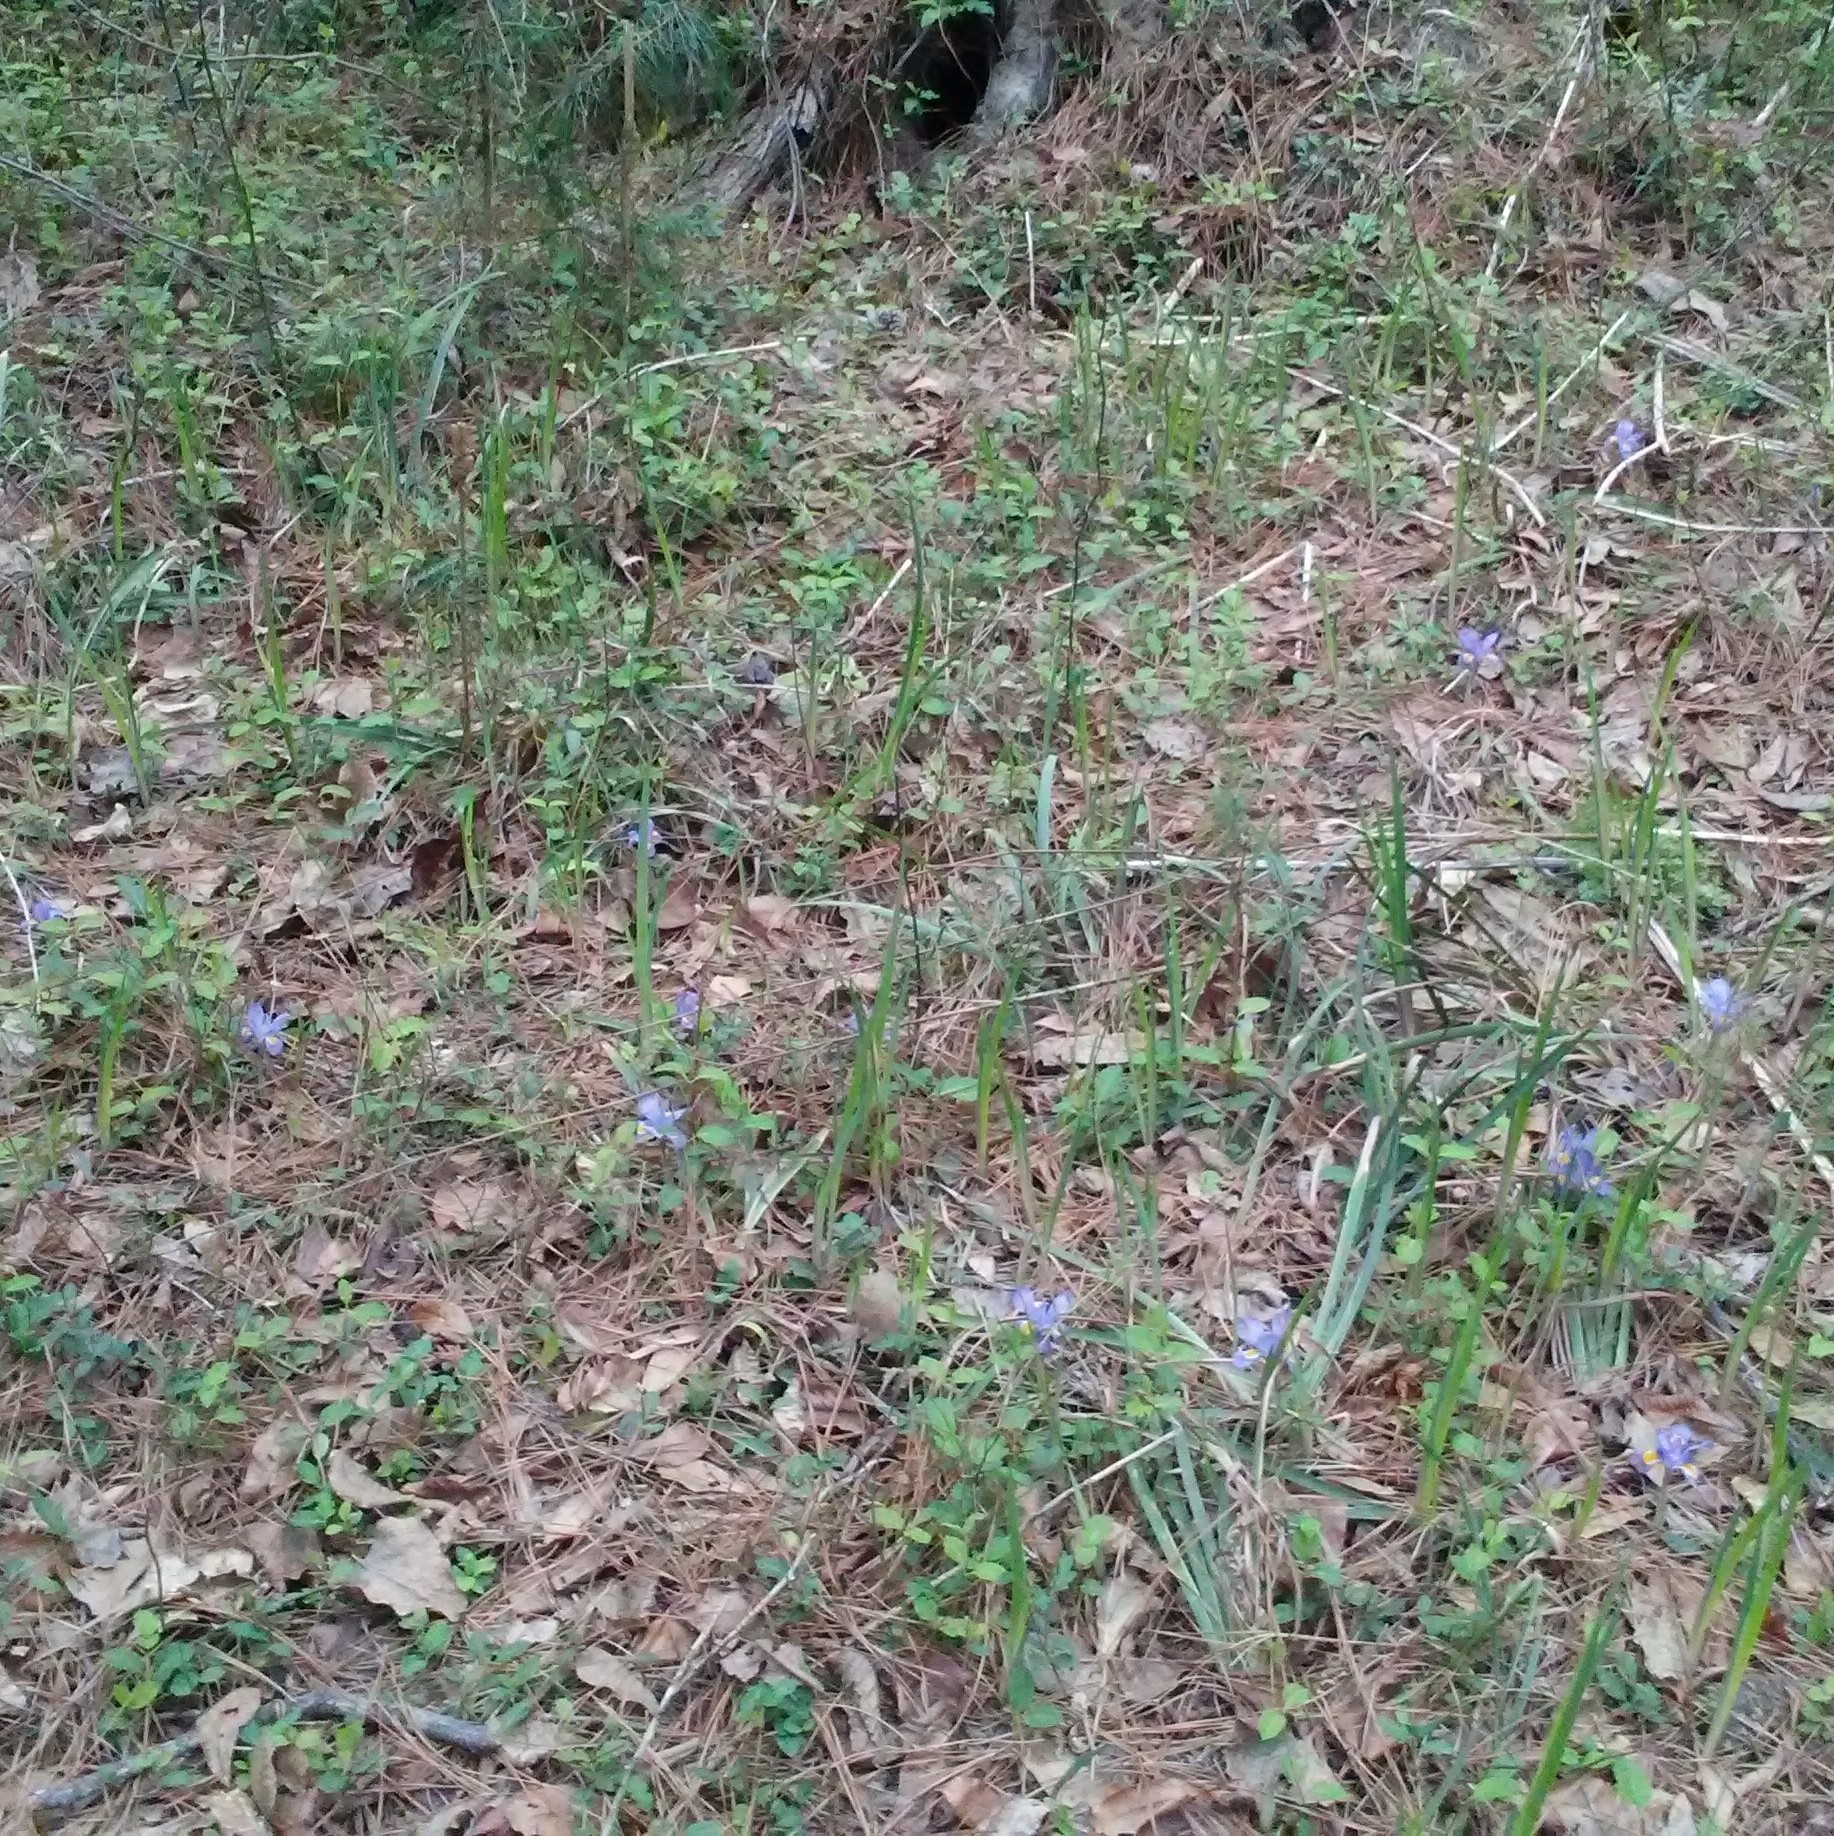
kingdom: Plantae
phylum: Tracheophyta
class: Liliopsida
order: Asparagales
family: Iridaceae
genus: Iris
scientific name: Iris verna
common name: Dwarf iris
